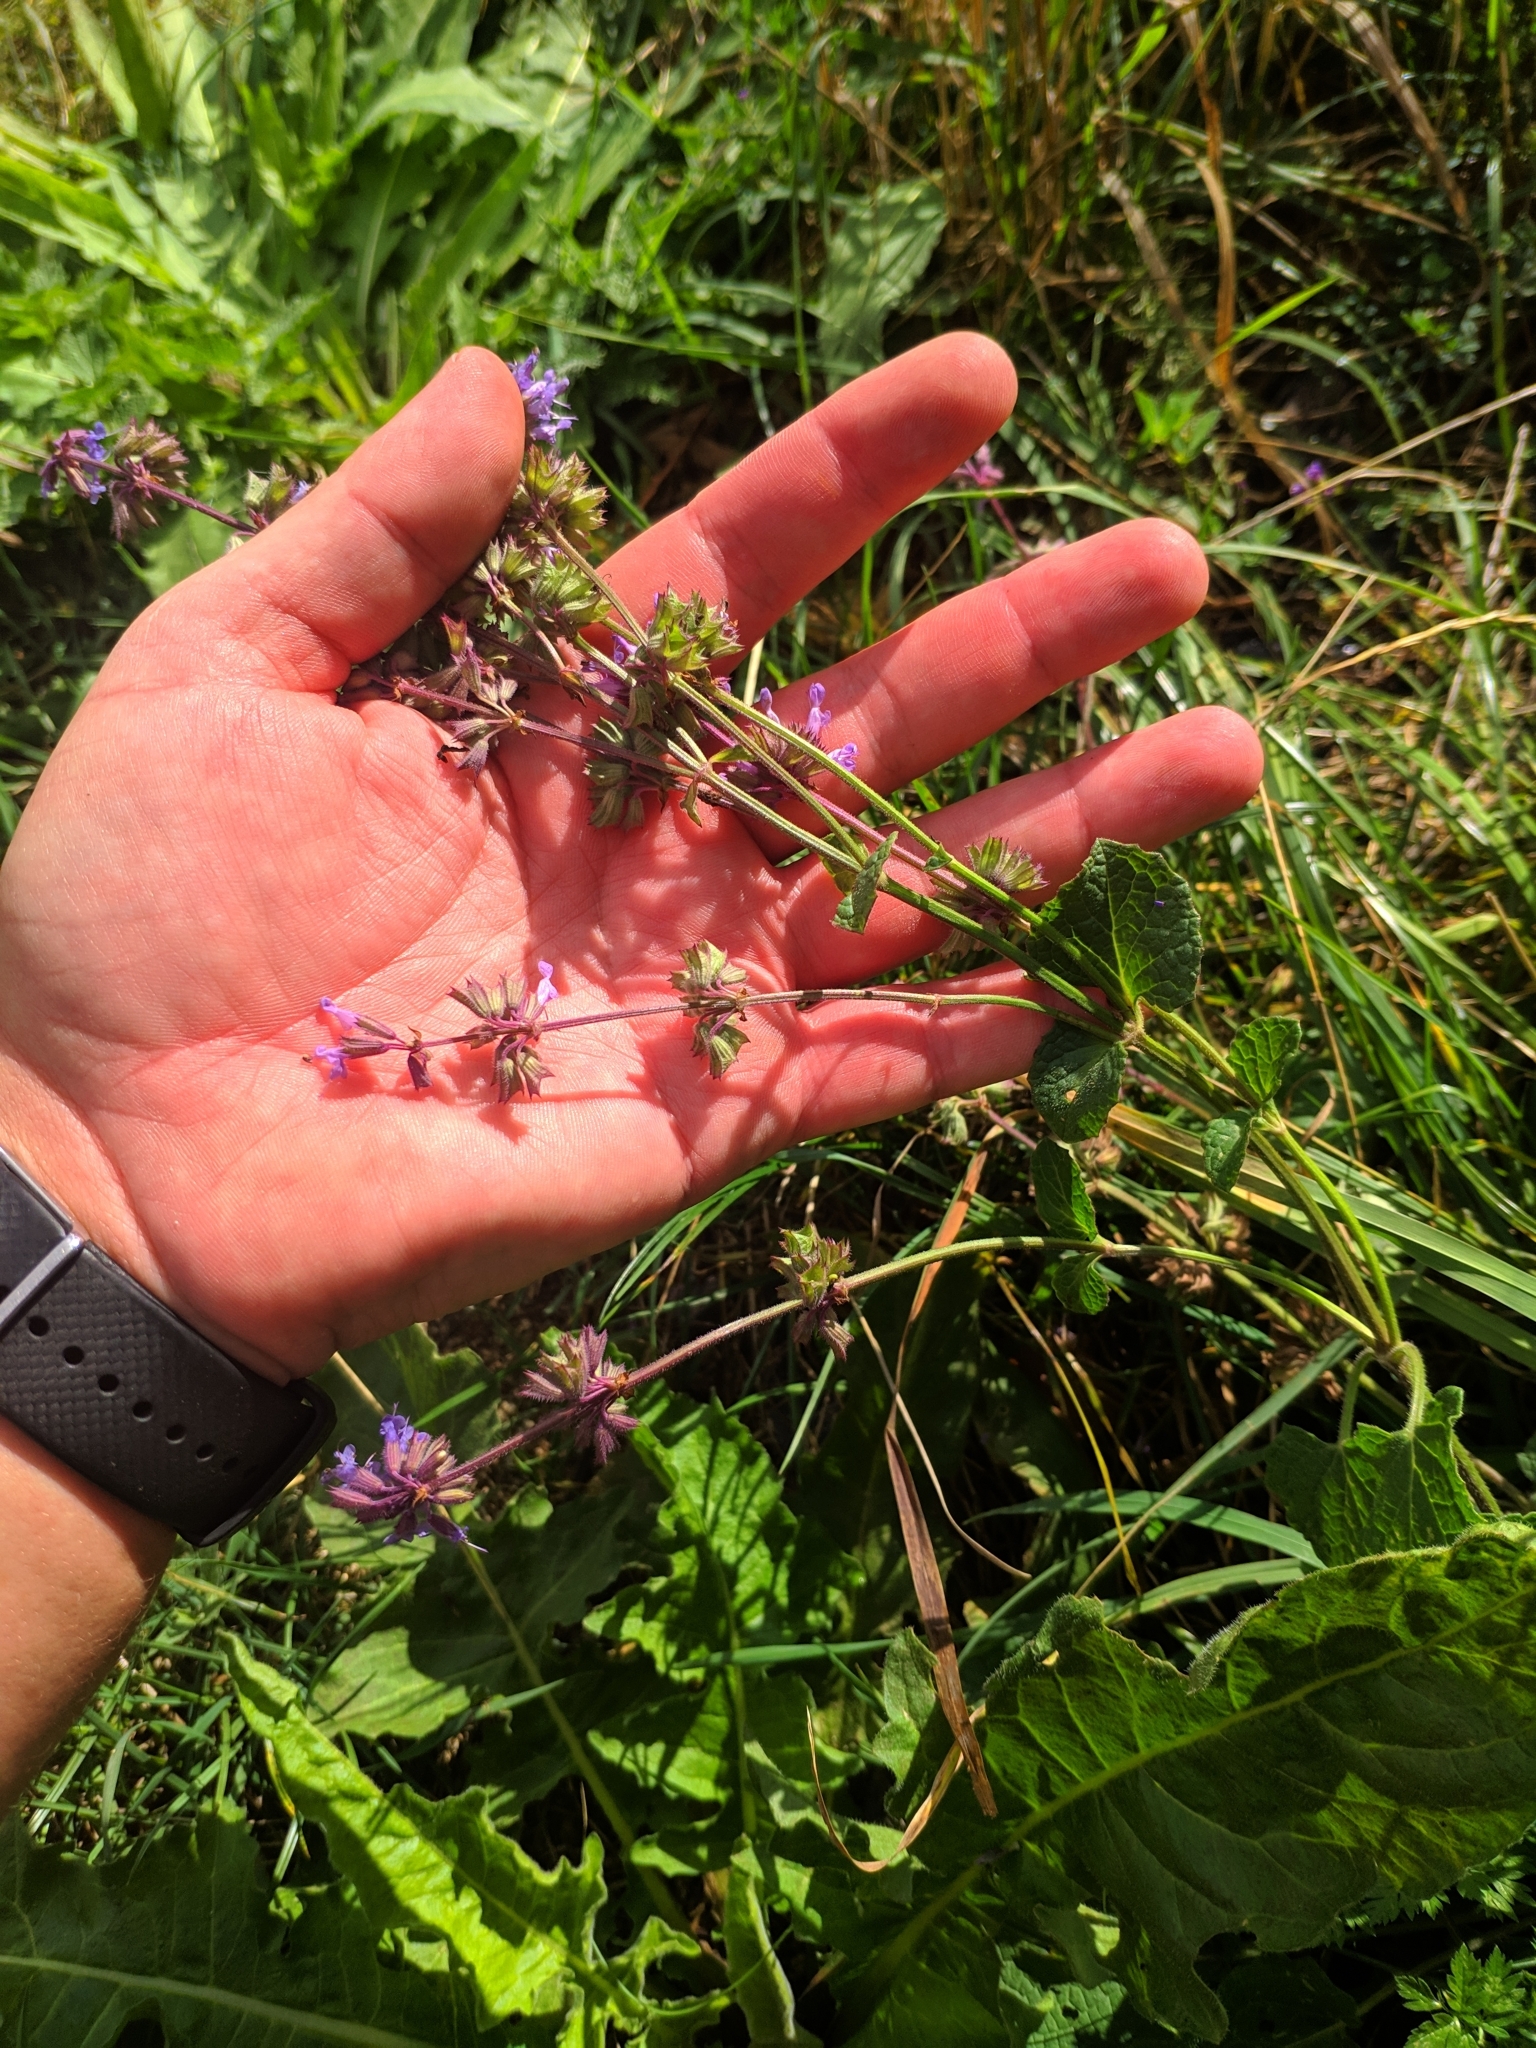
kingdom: Plantae
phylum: Tracheophyta
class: Magnoliopsida
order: Lamiales
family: Lamiaceae
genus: Salvia
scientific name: Salvia verticillata
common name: Whorled clary
